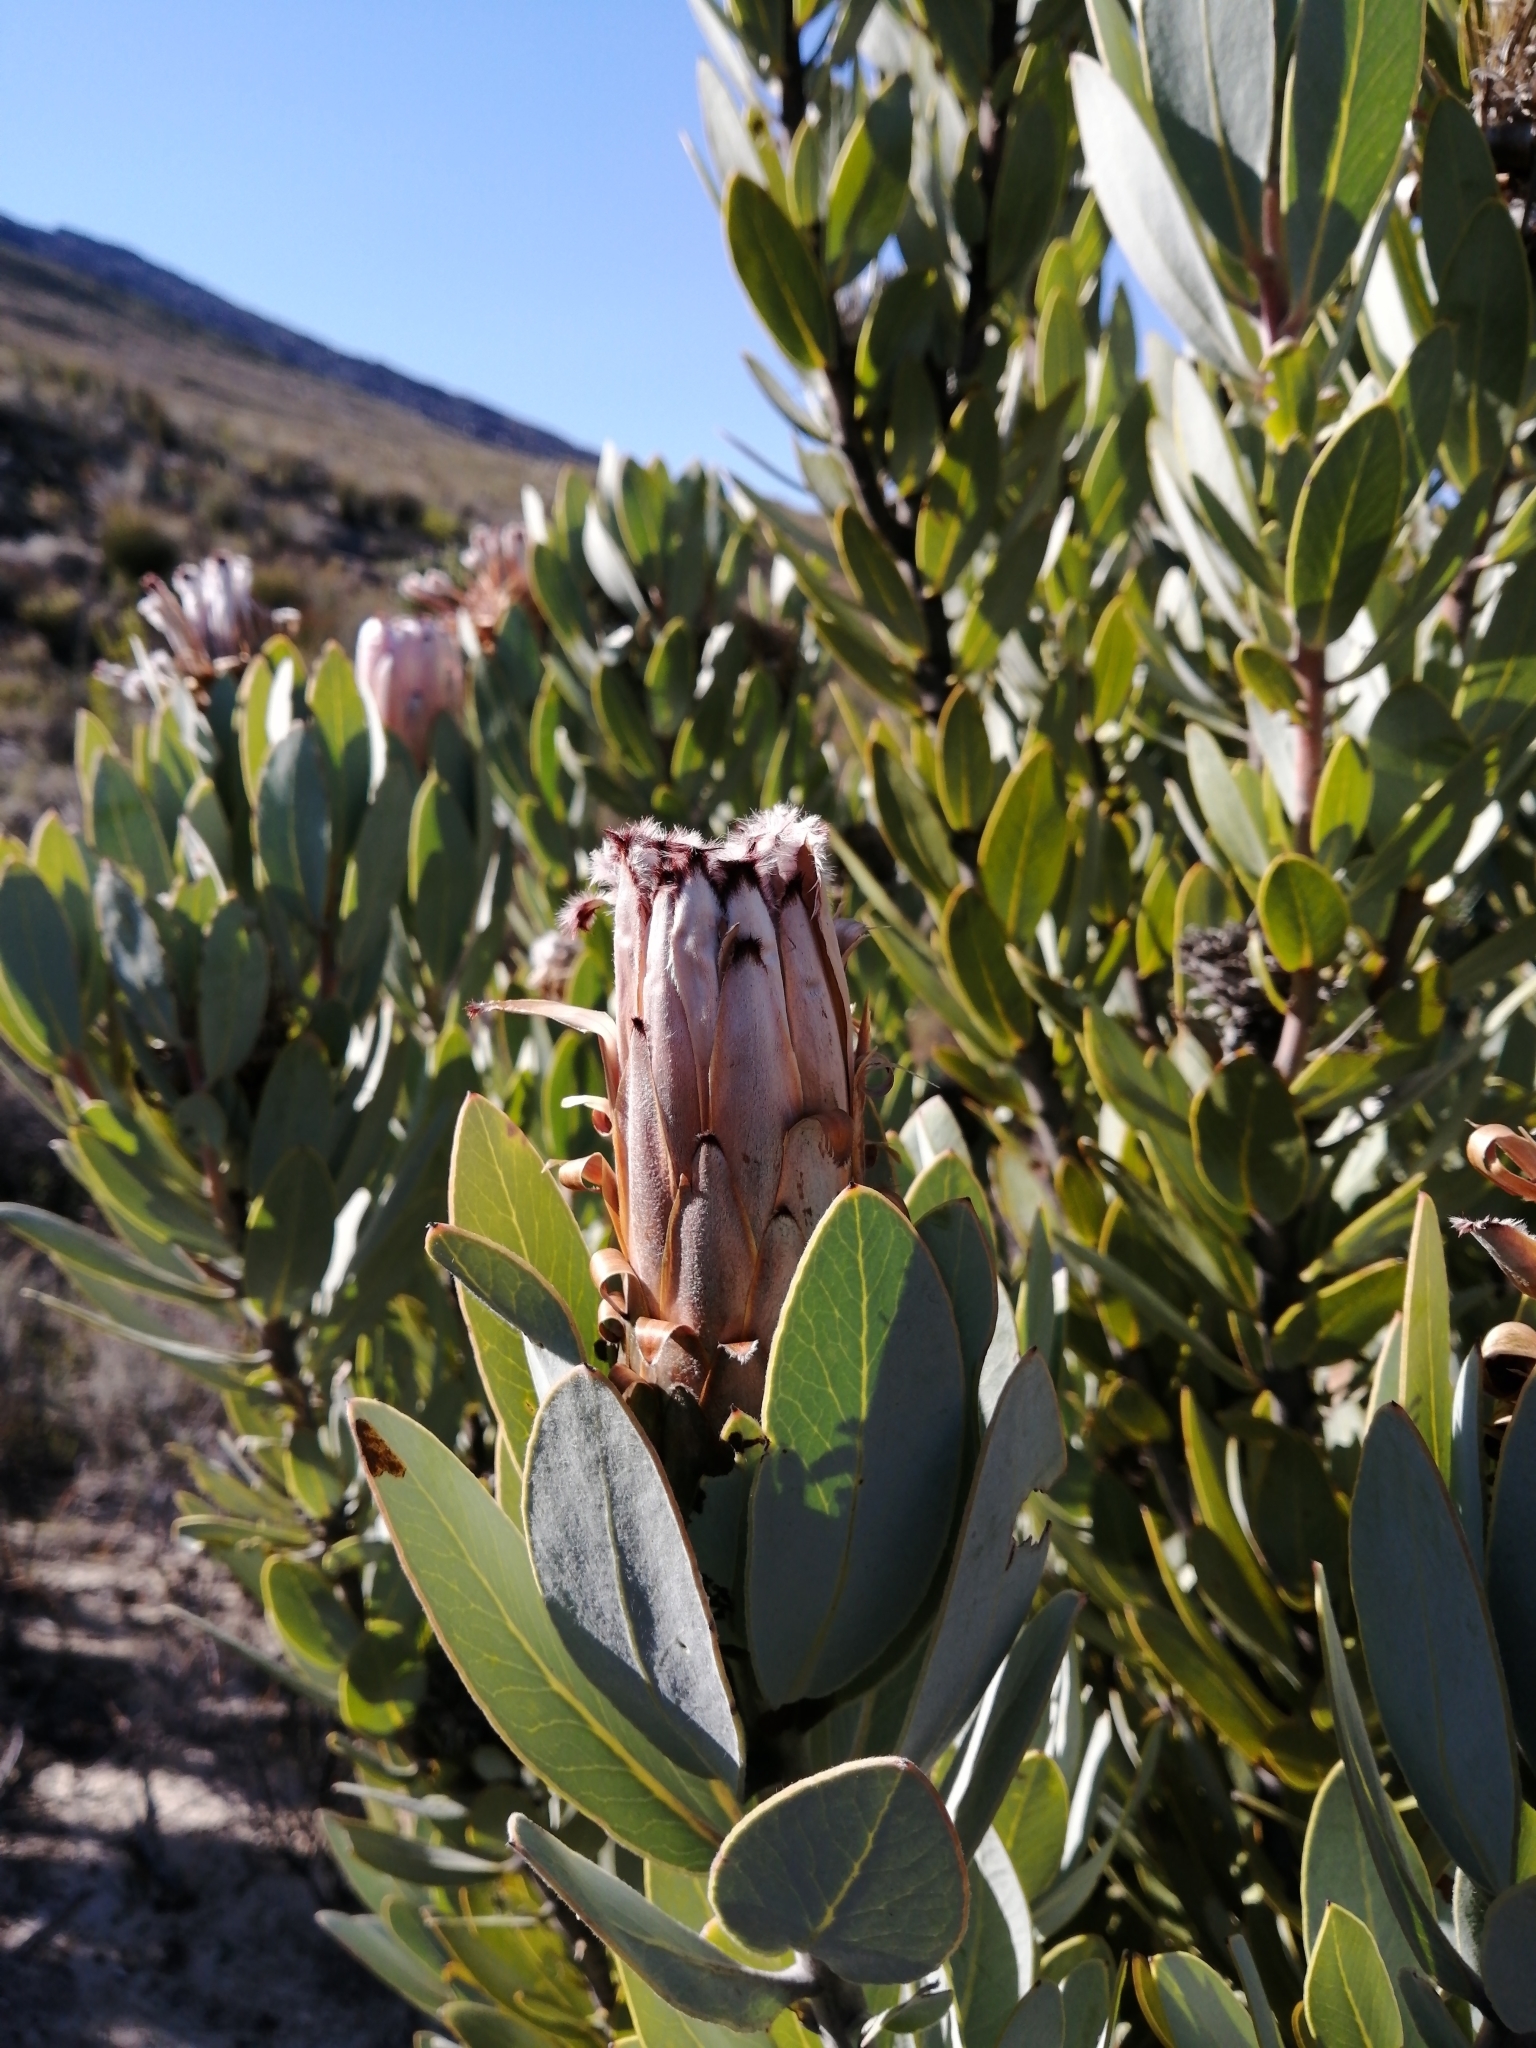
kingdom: Plantae
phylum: Tracheophyta
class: Magnoliopsida
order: Proteales
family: Proteaceae
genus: Protea
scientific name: Protea laurifolia
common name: Grey-leaf sugarbsh
